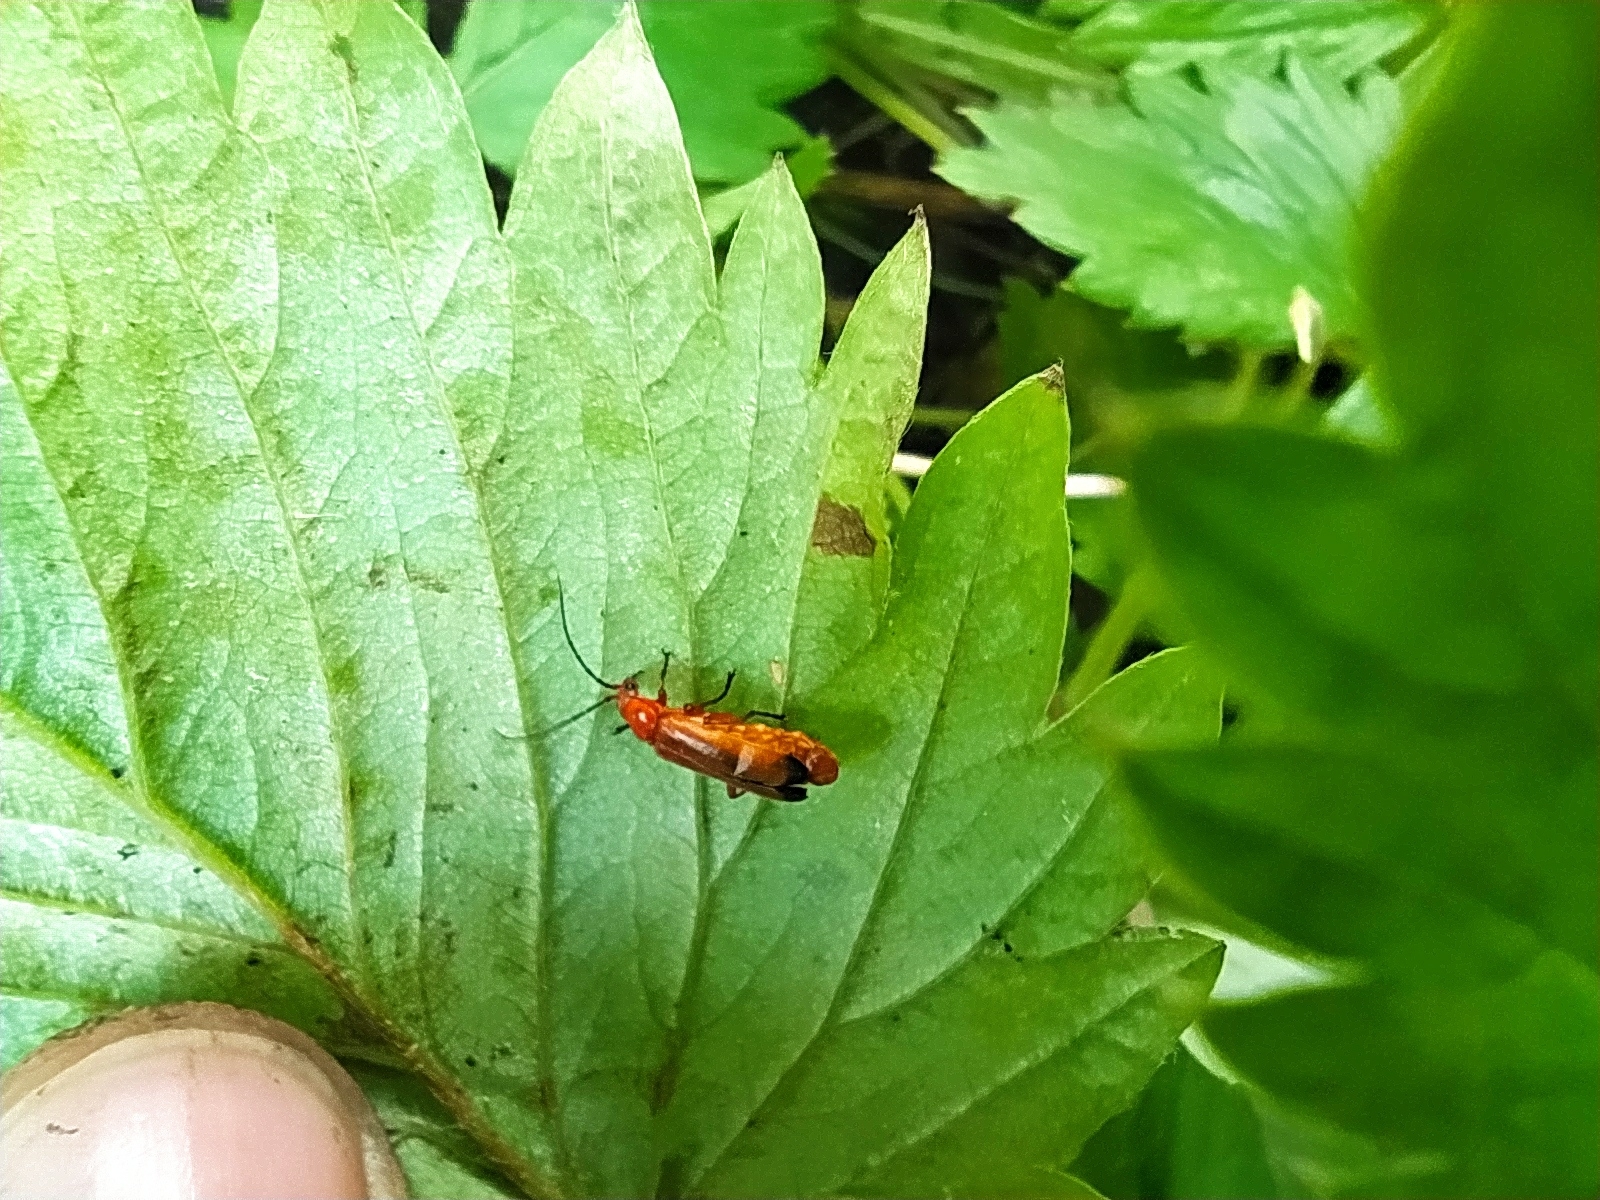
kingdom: Animalia
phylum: Arthropoda
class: Insecta
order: Coleoptera
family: Cantharidae
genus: Rhagonycha
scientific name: Rhagonycha fulva
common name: Common red soldier beetle
